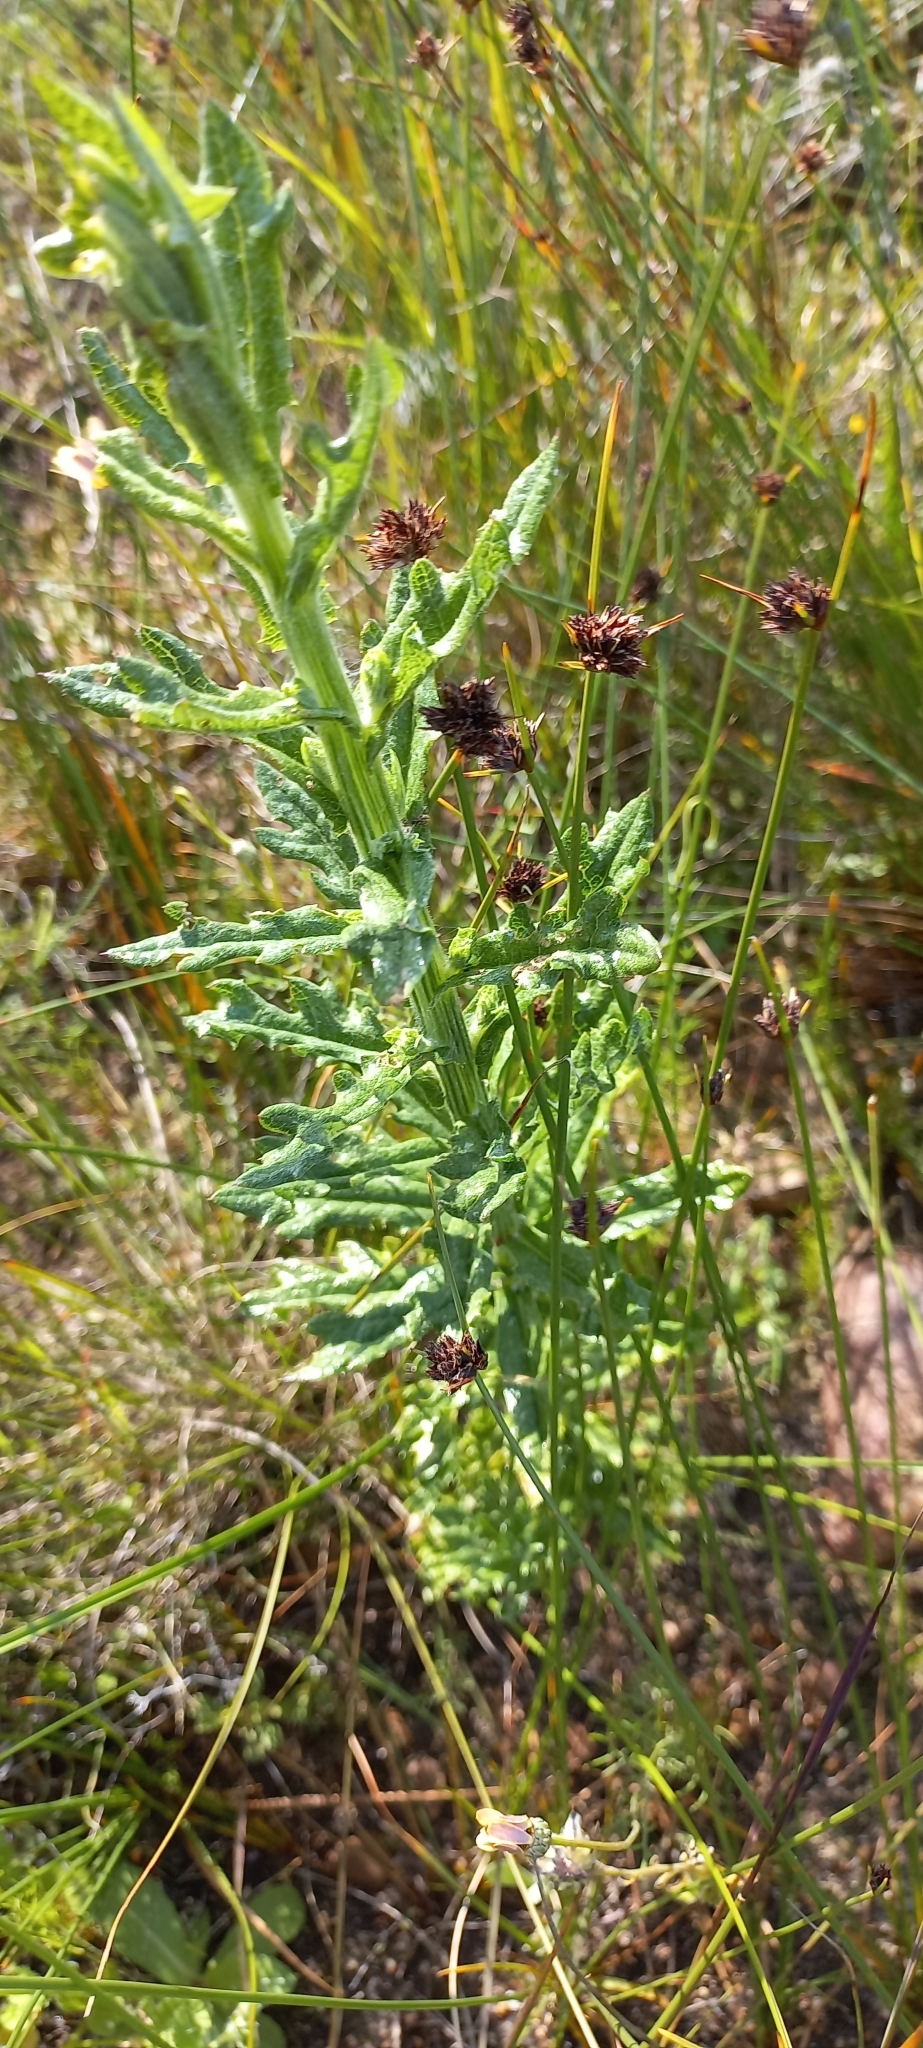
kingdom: Plantae
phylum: Tracheophyta
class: Magnoliopsida
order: Asterales
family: Asteraceae
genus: Senecio
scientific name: Senecio pterophorus
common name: Shoddy ragwort
